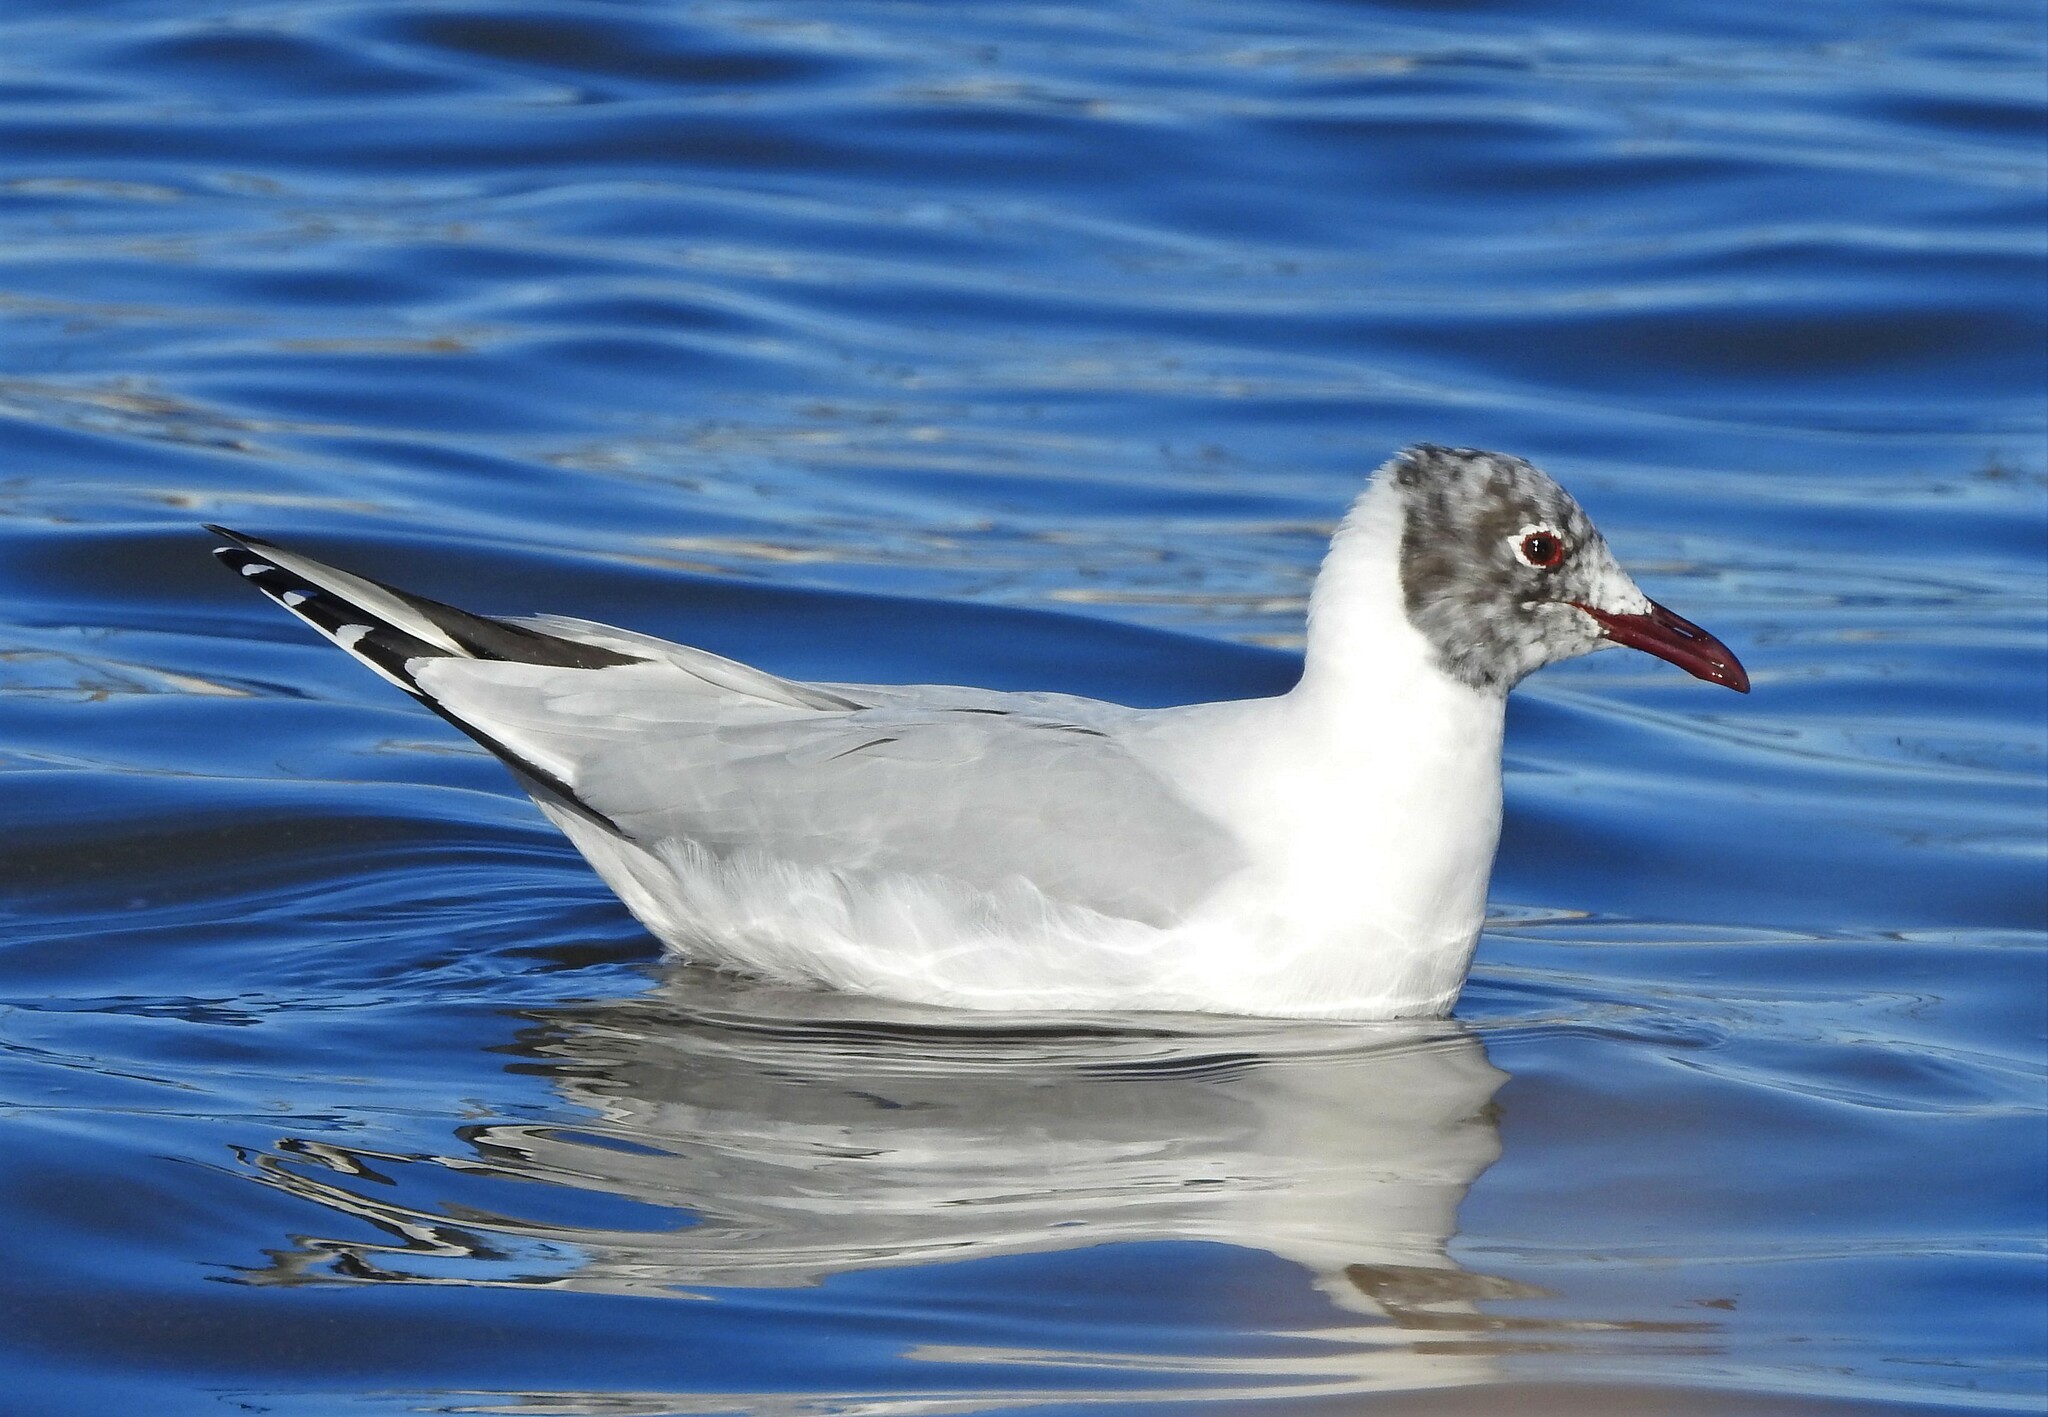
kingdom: Animalia
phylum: Chordata
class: Aves
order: Charadriiformes
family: Laridae
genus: Chroicocephalus
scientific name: Chroicocephalus maculipennis
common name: Brown-hooded gull
